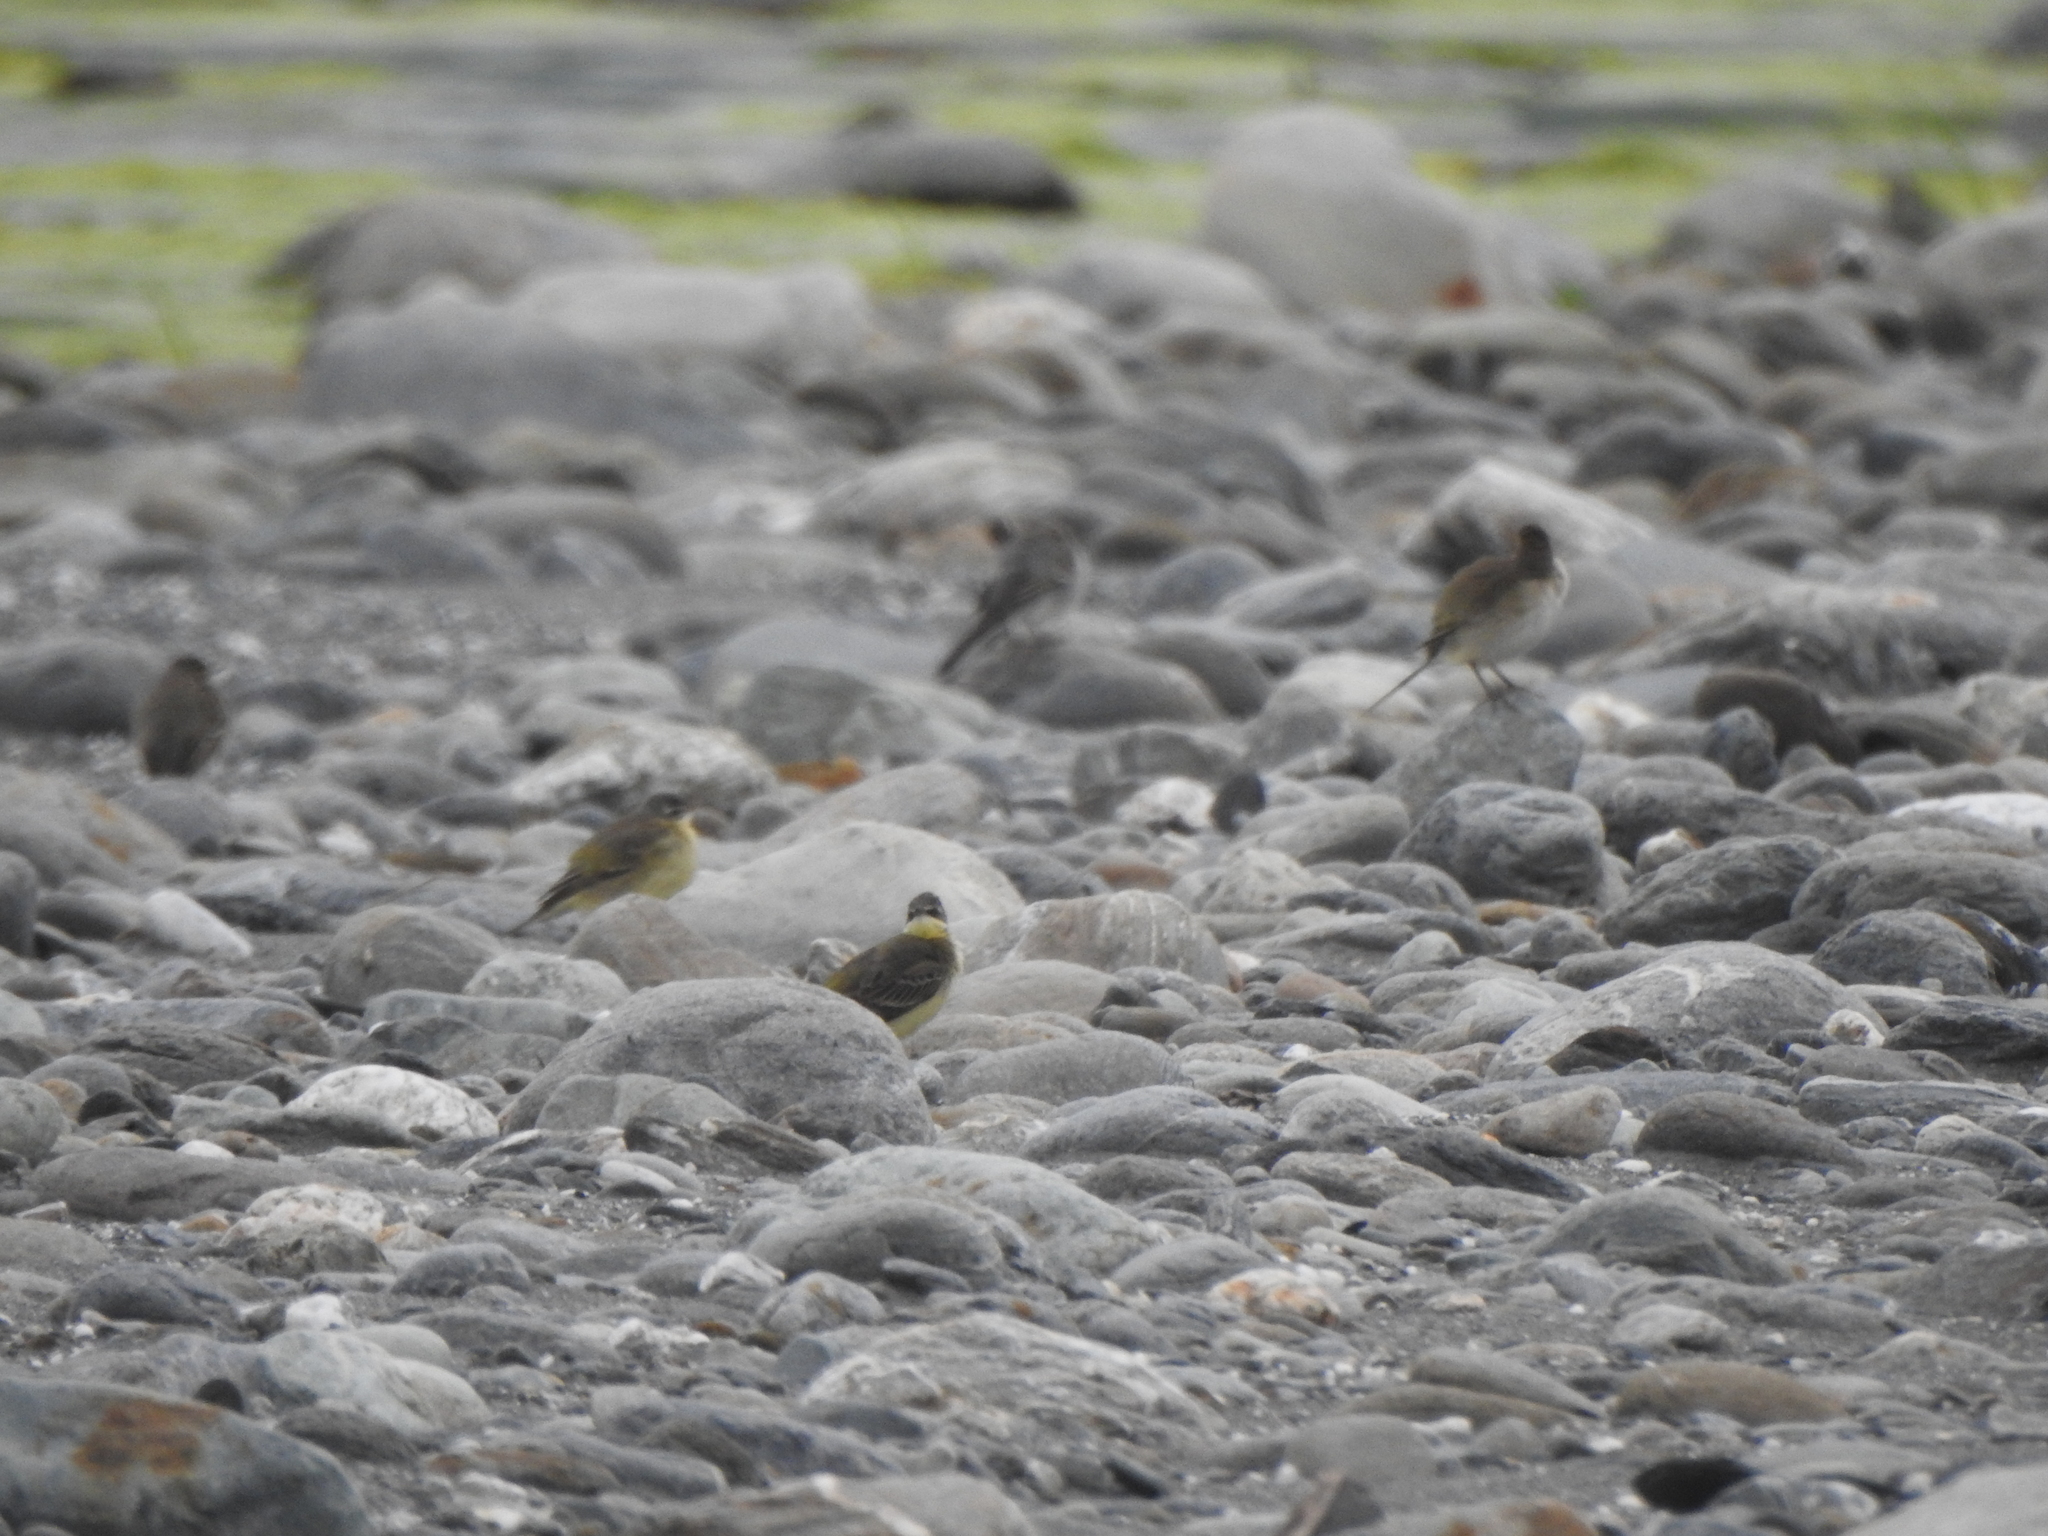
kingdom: Animalia
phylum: Chordata
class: Aves
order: Passeriformes
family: Motacillidae
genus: Motacilla
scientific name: Motacilla tschutschensis
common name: Eastern yellow wagtail
